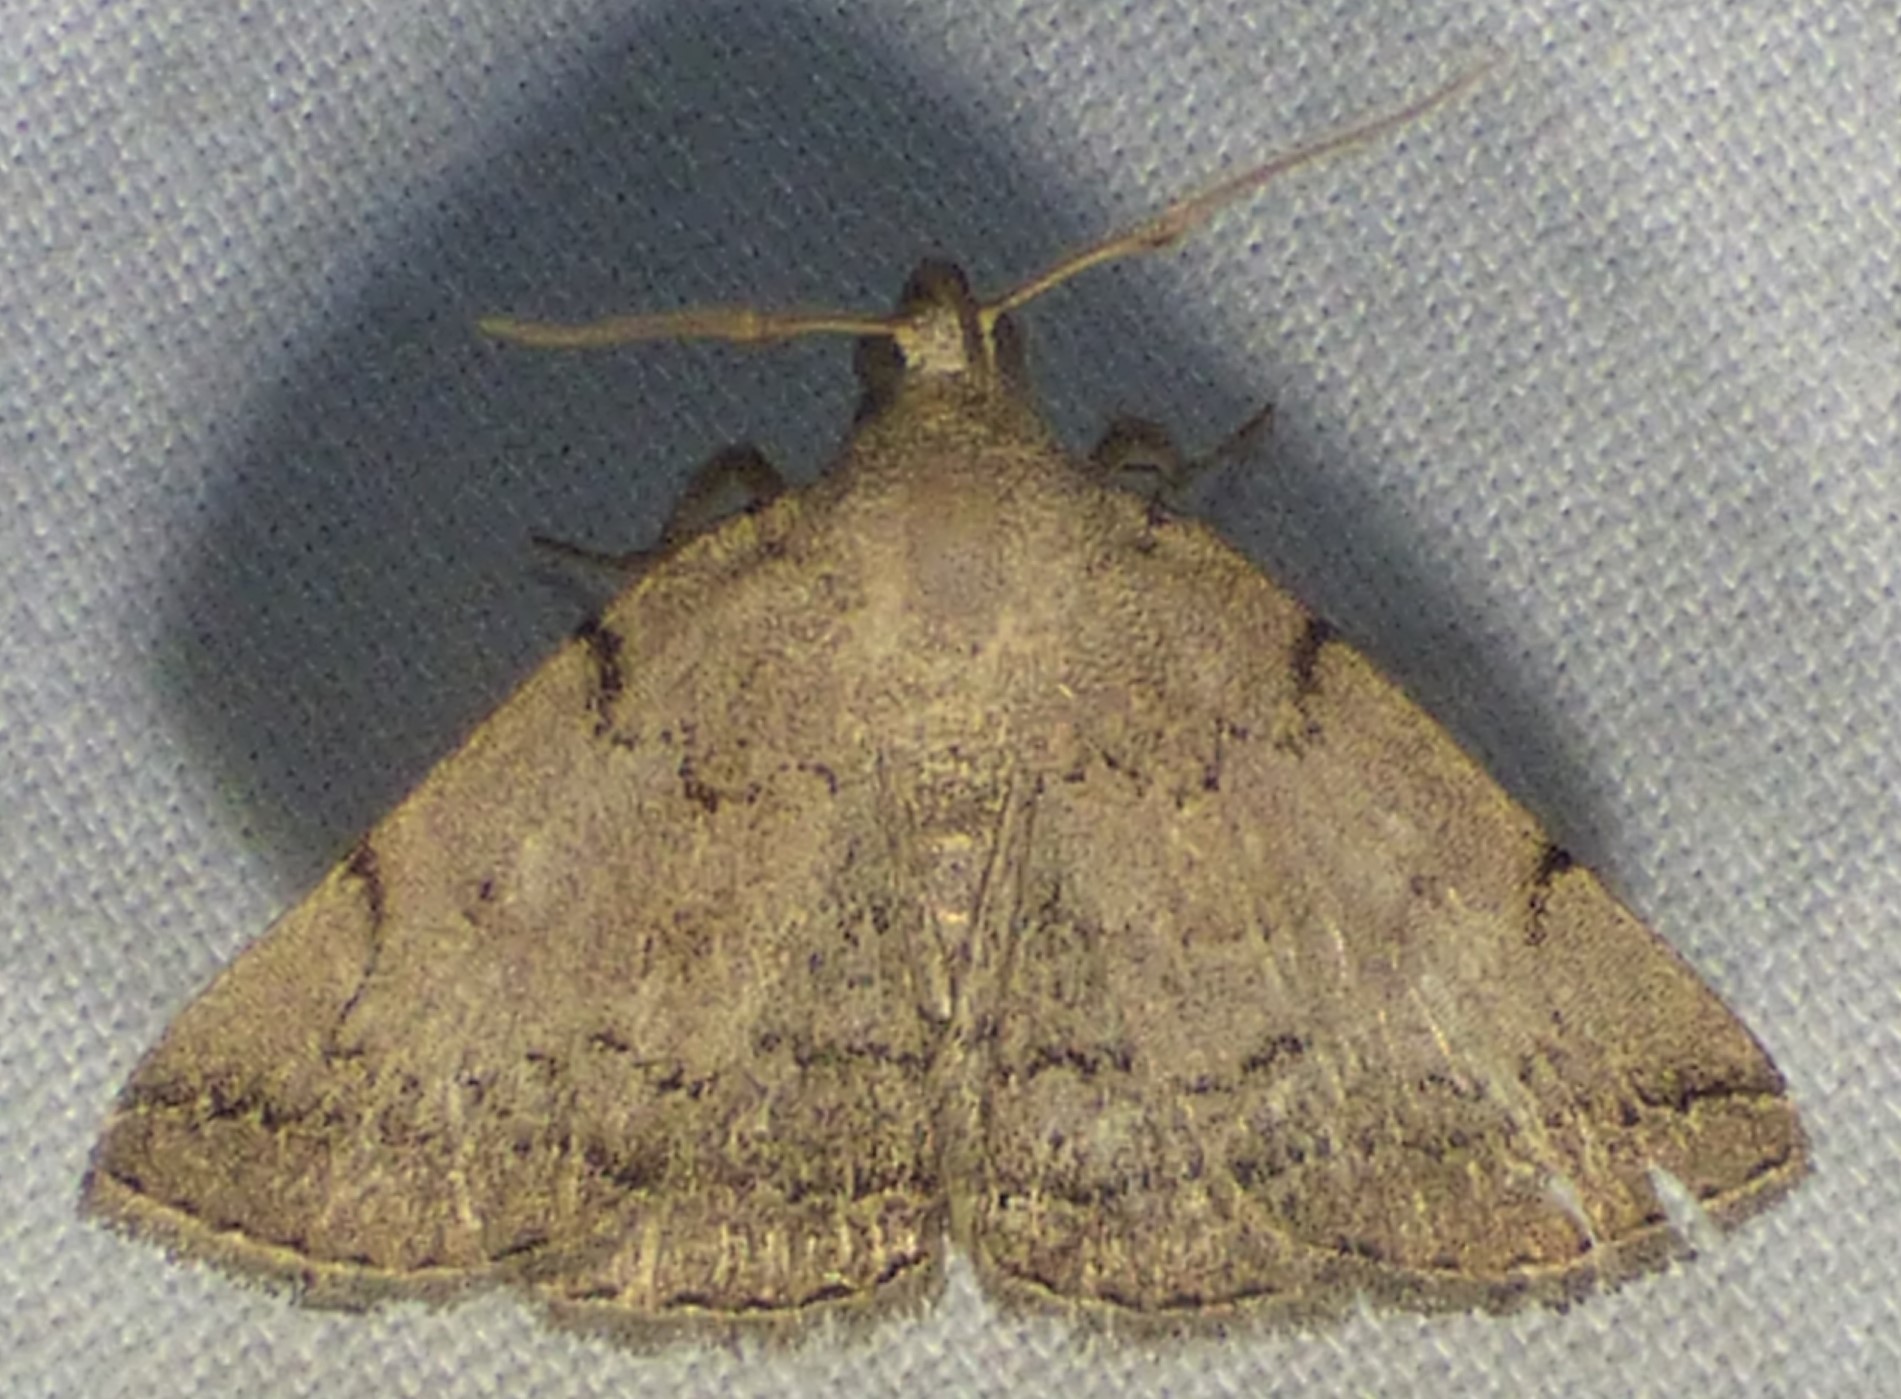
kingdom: Animalia
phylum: Arthropoda
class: Insecta
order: Lepidoptera
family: Erebidae
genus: Zanclognatha
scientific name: Zanclognatha theralis
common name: Flagged fan-foot
